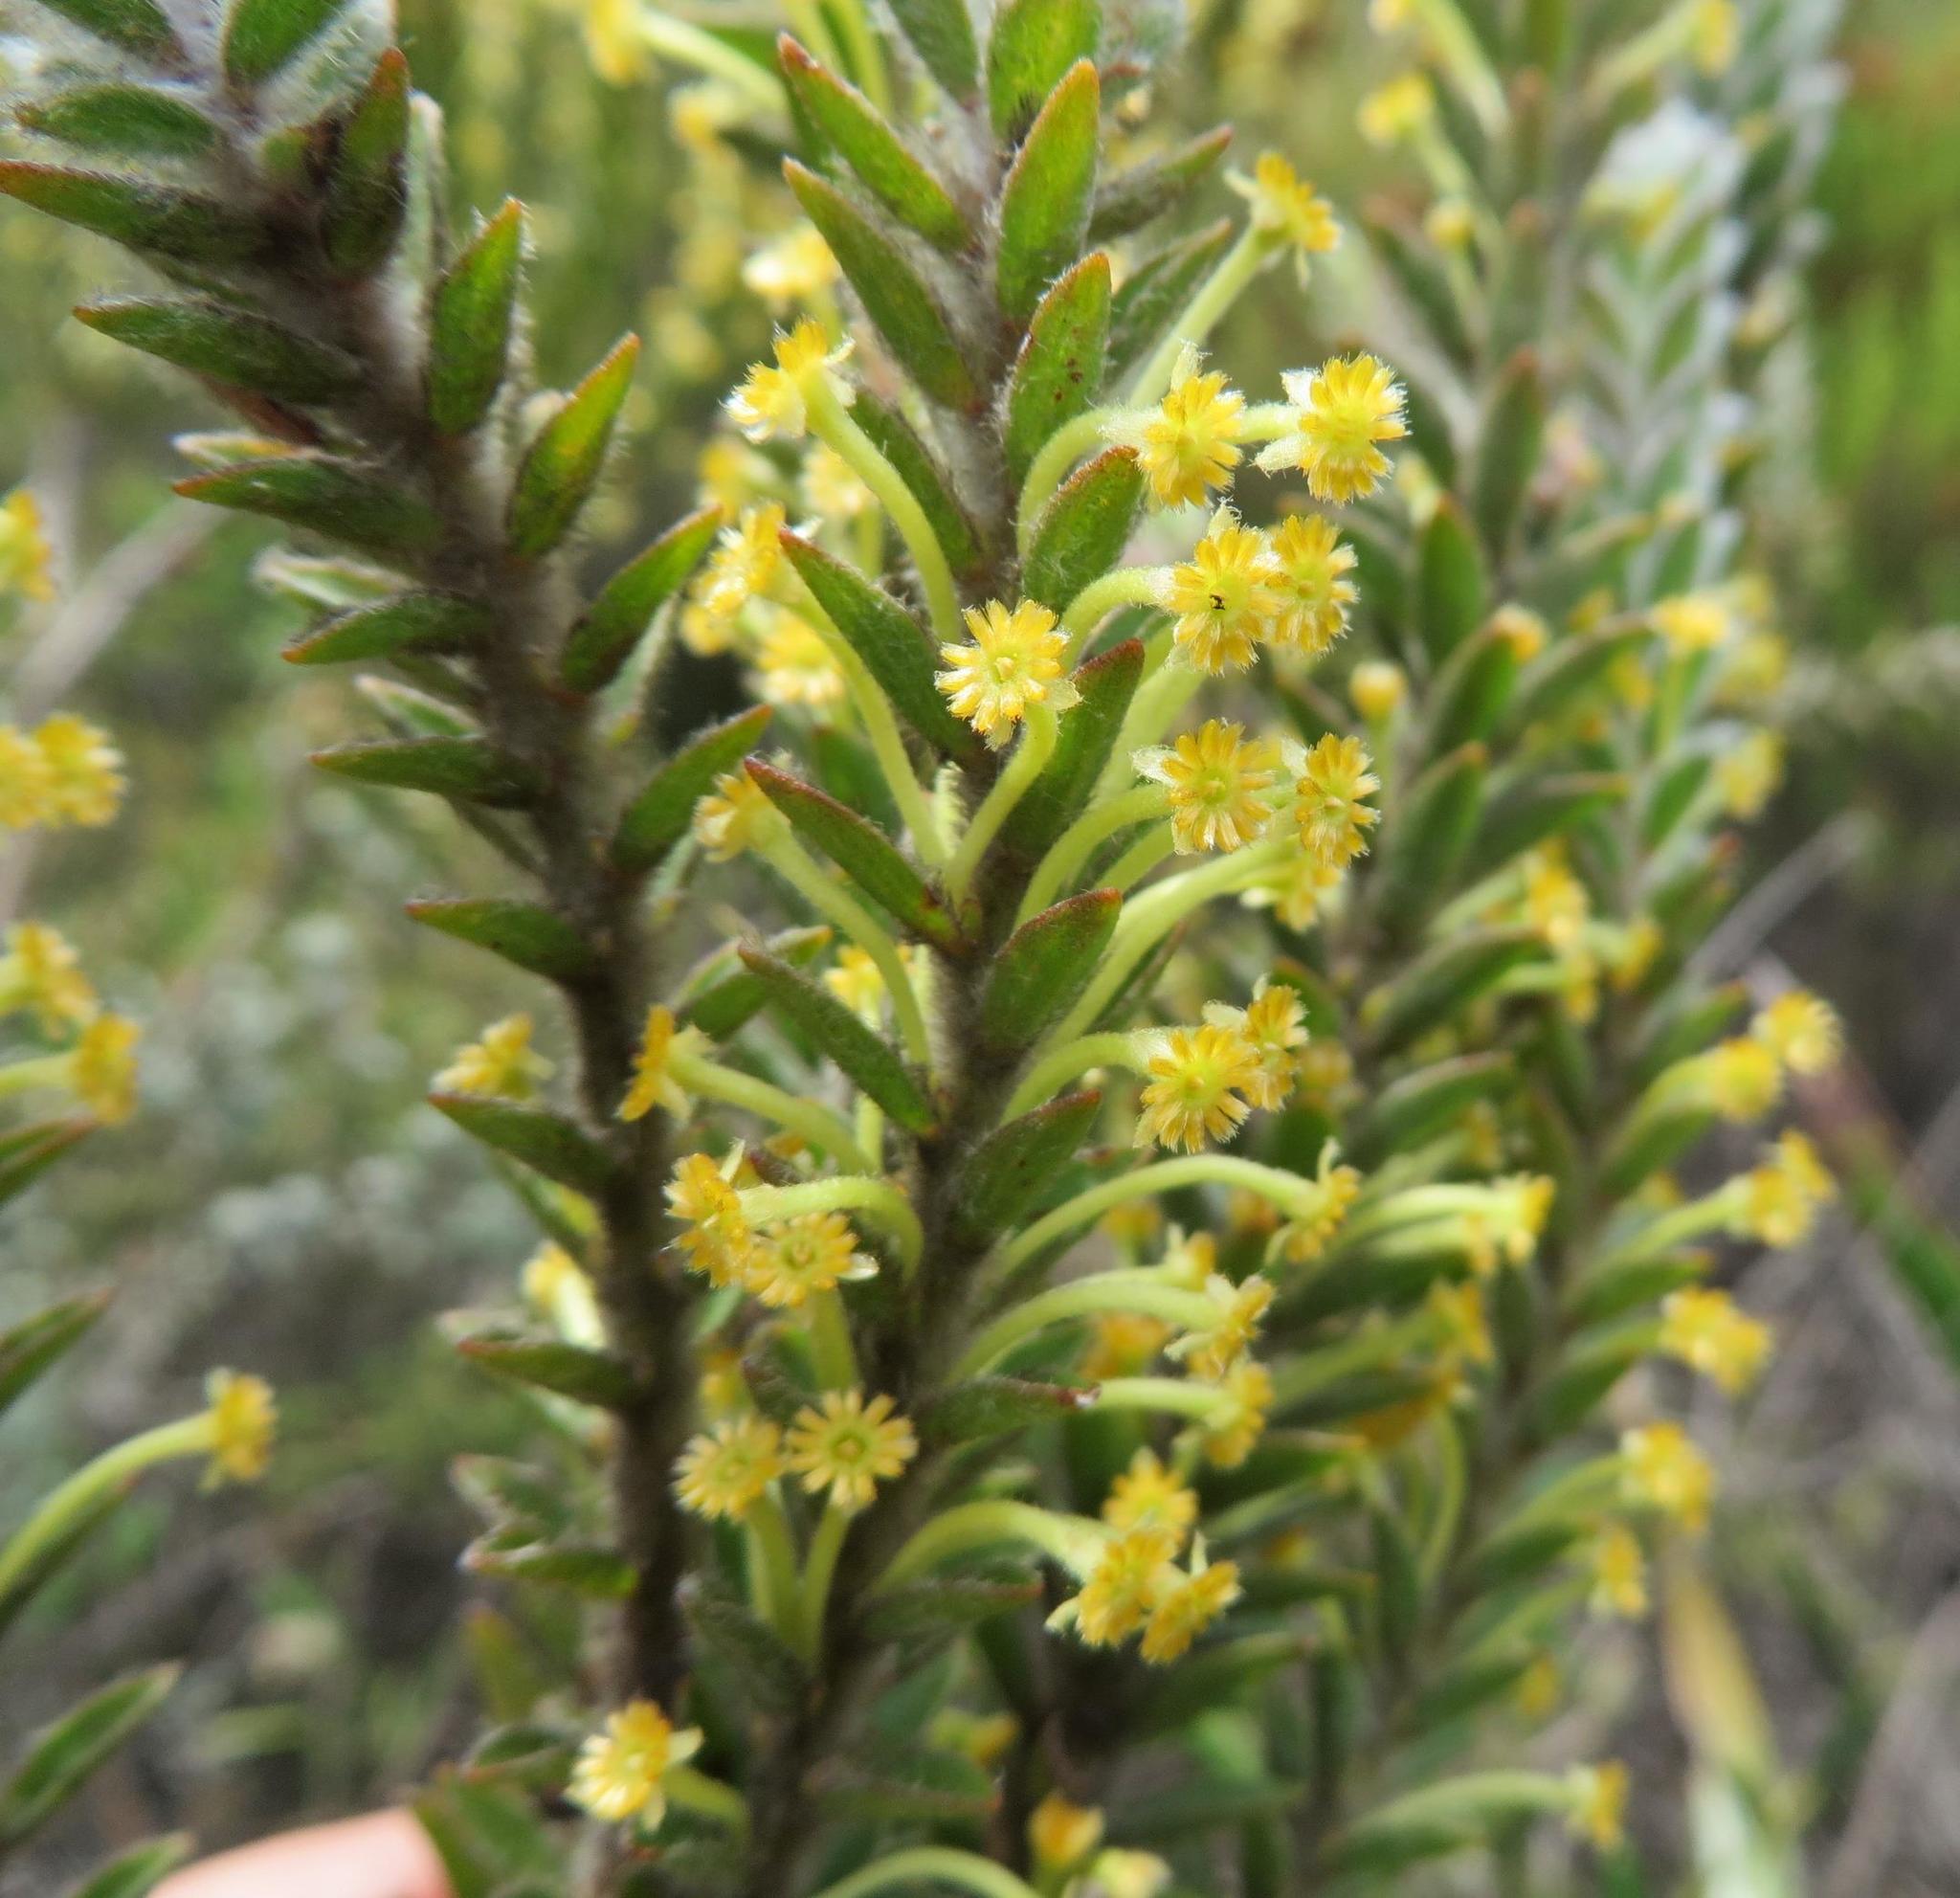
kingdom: Plantae
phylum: Tracheophyta
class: Magnoliopsida
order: Malvales
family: Thymelaeaceae
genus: Struthiola
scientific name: Struthiola tomentosa
